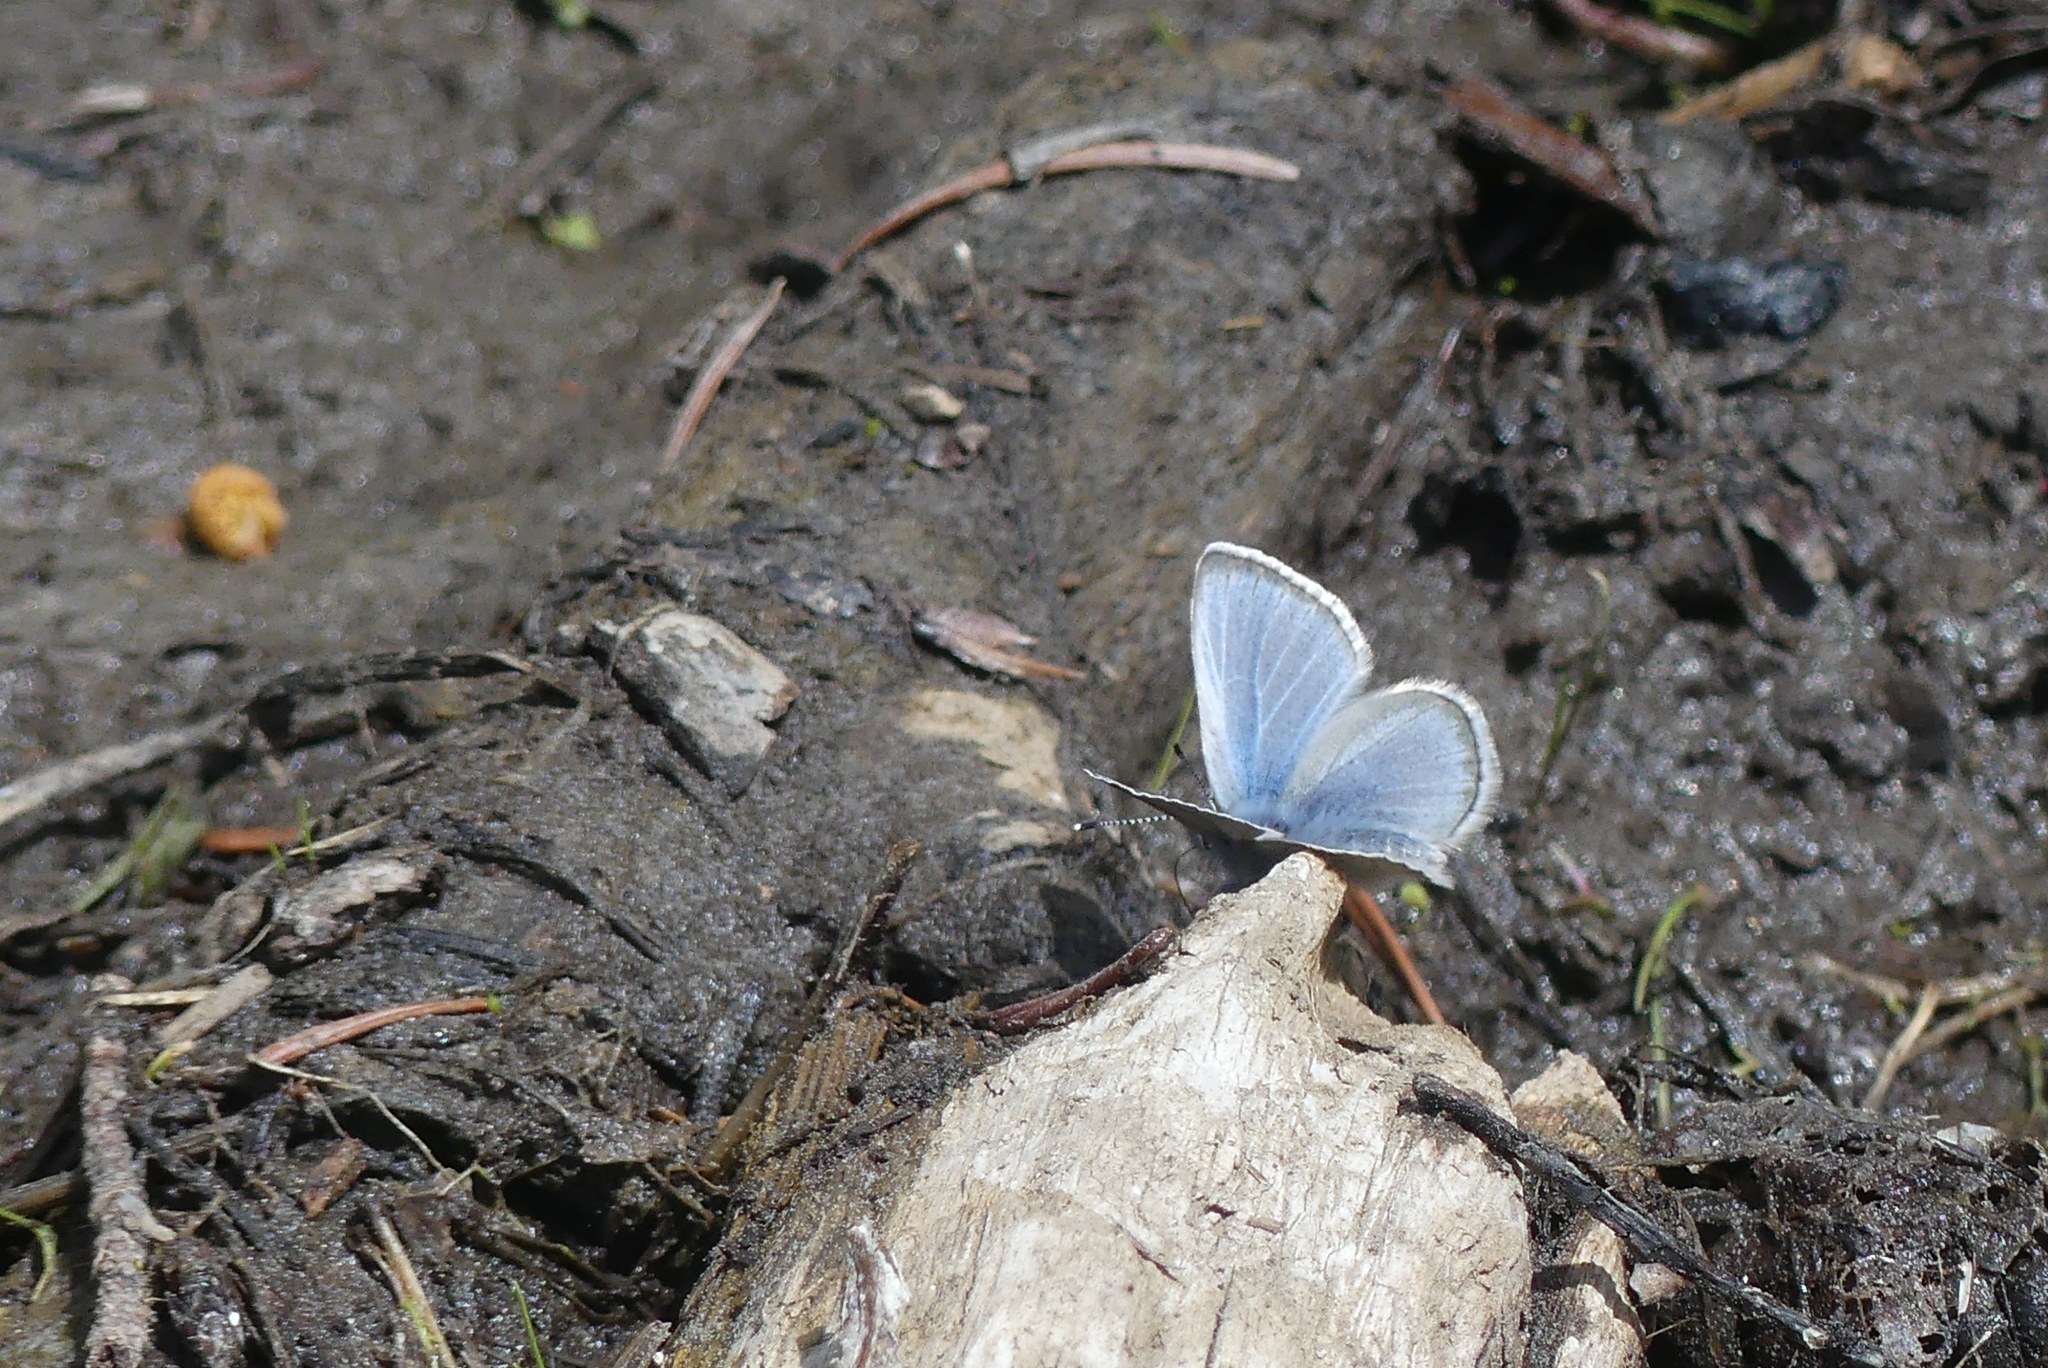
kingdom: Animalia
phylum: Arthropoda
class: Insecta
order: Lepidoptera
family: Lycaenidae
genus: Glaucopsyche
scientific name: Glaucopsyche lygdamus
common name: Silvery blue
